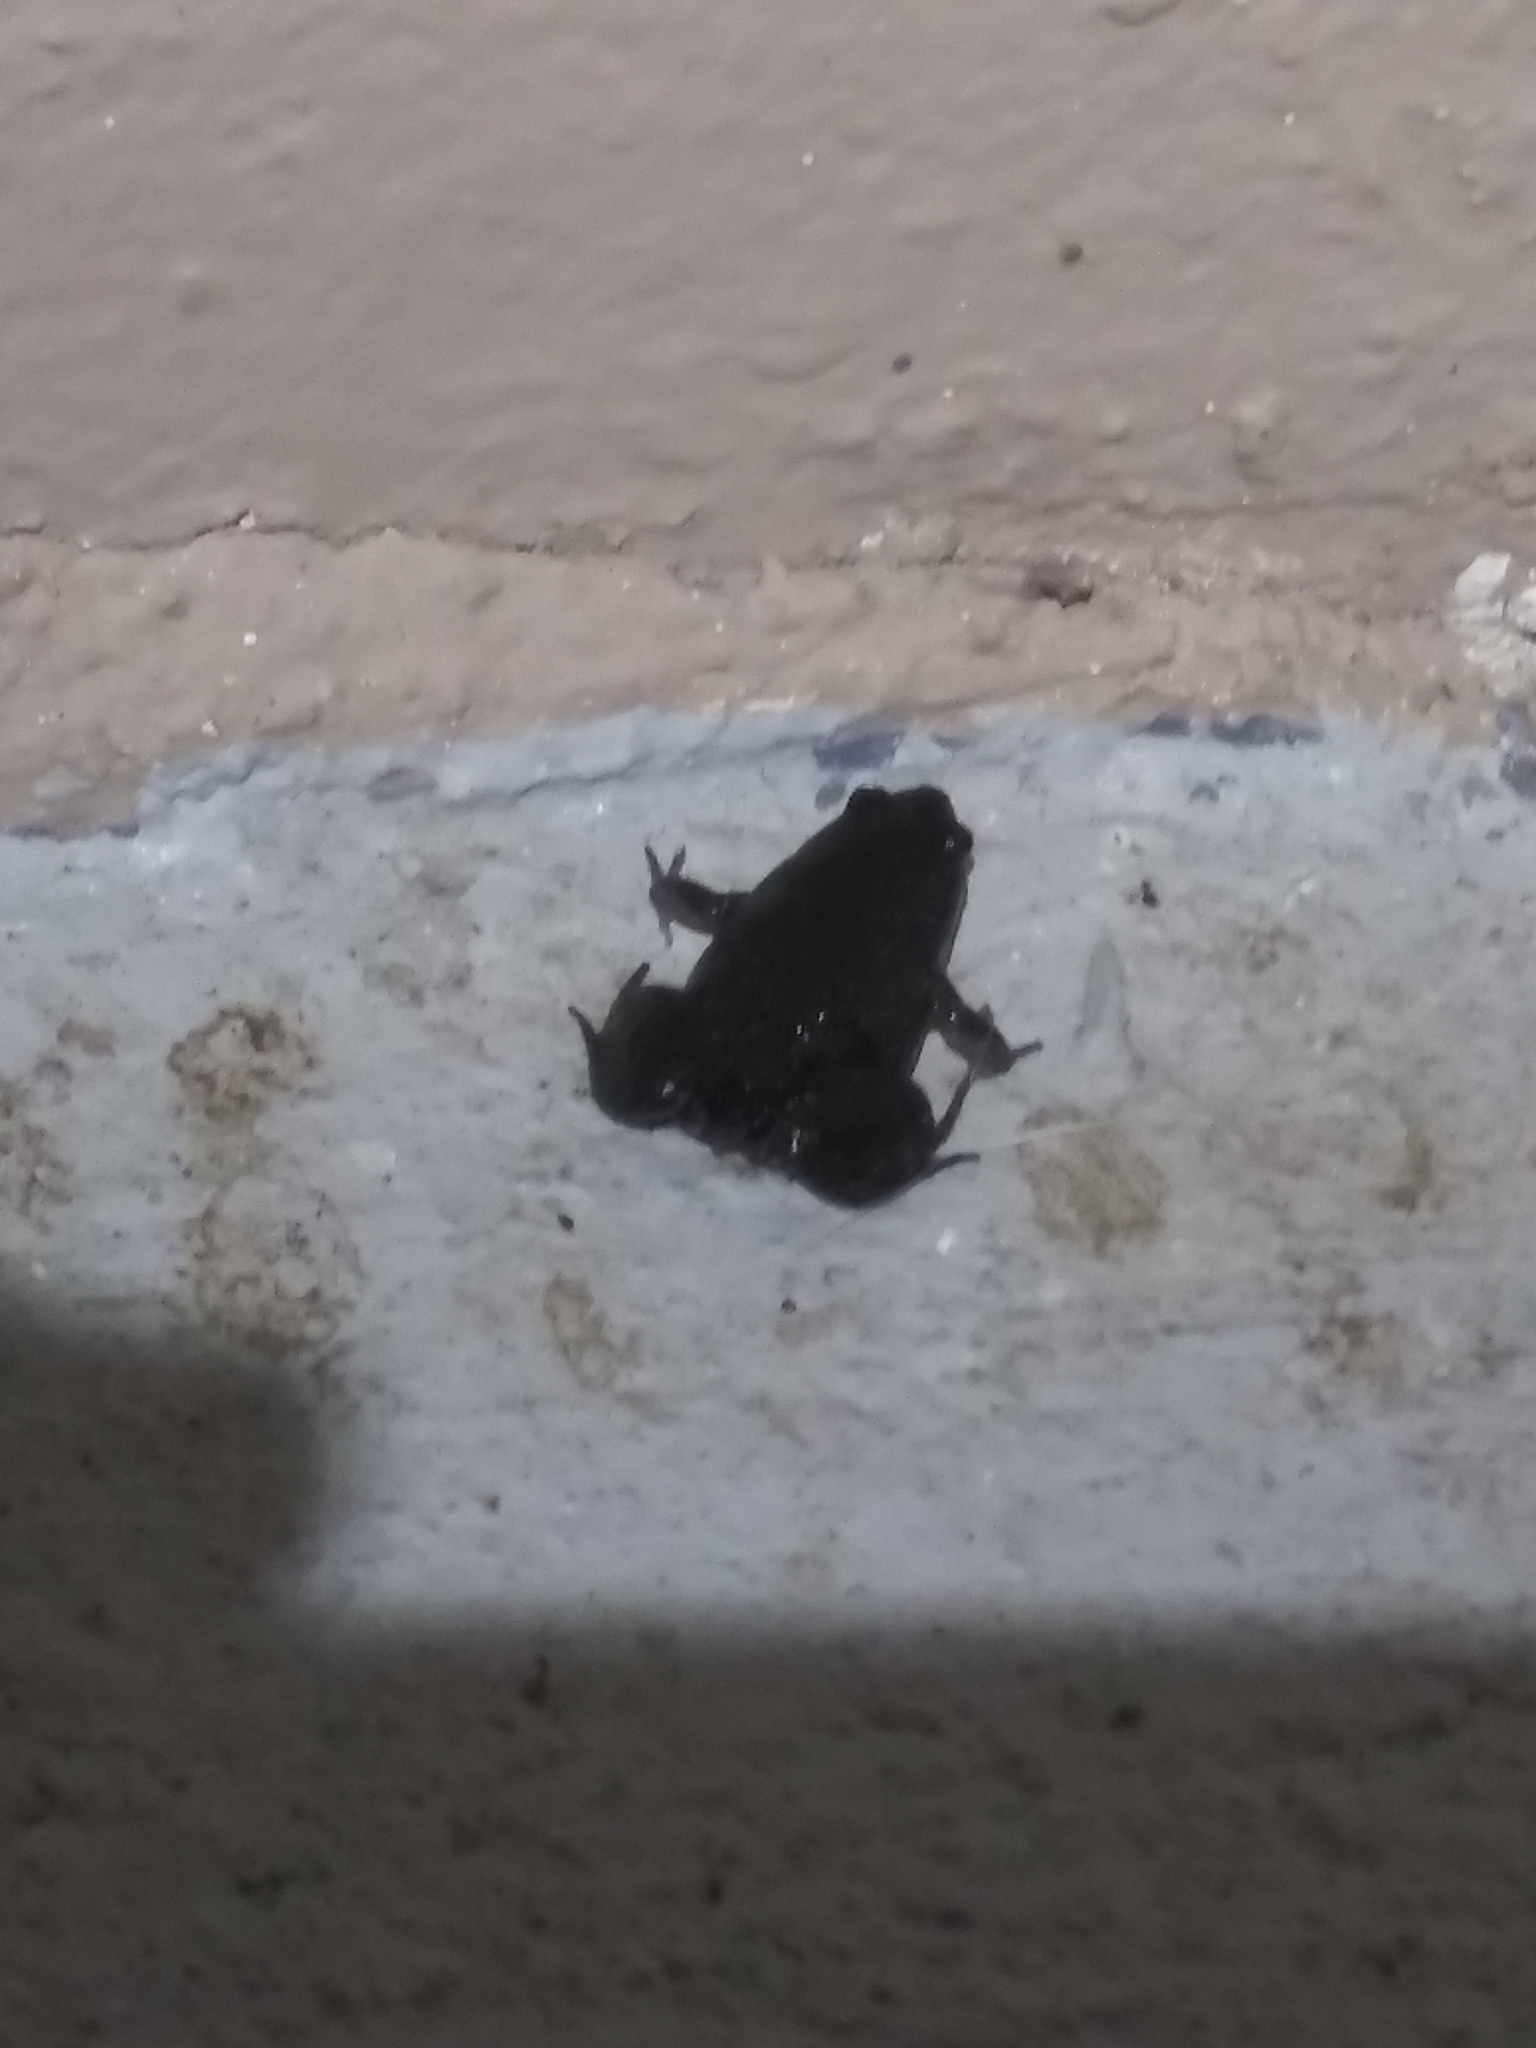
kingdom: Animalia
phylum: Chordata
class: Amphibia
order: Anura
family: Microhylidae
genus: Gastrophryne
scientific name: Gastrophryne carolinensis
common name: Eastern narrowmouth toad
